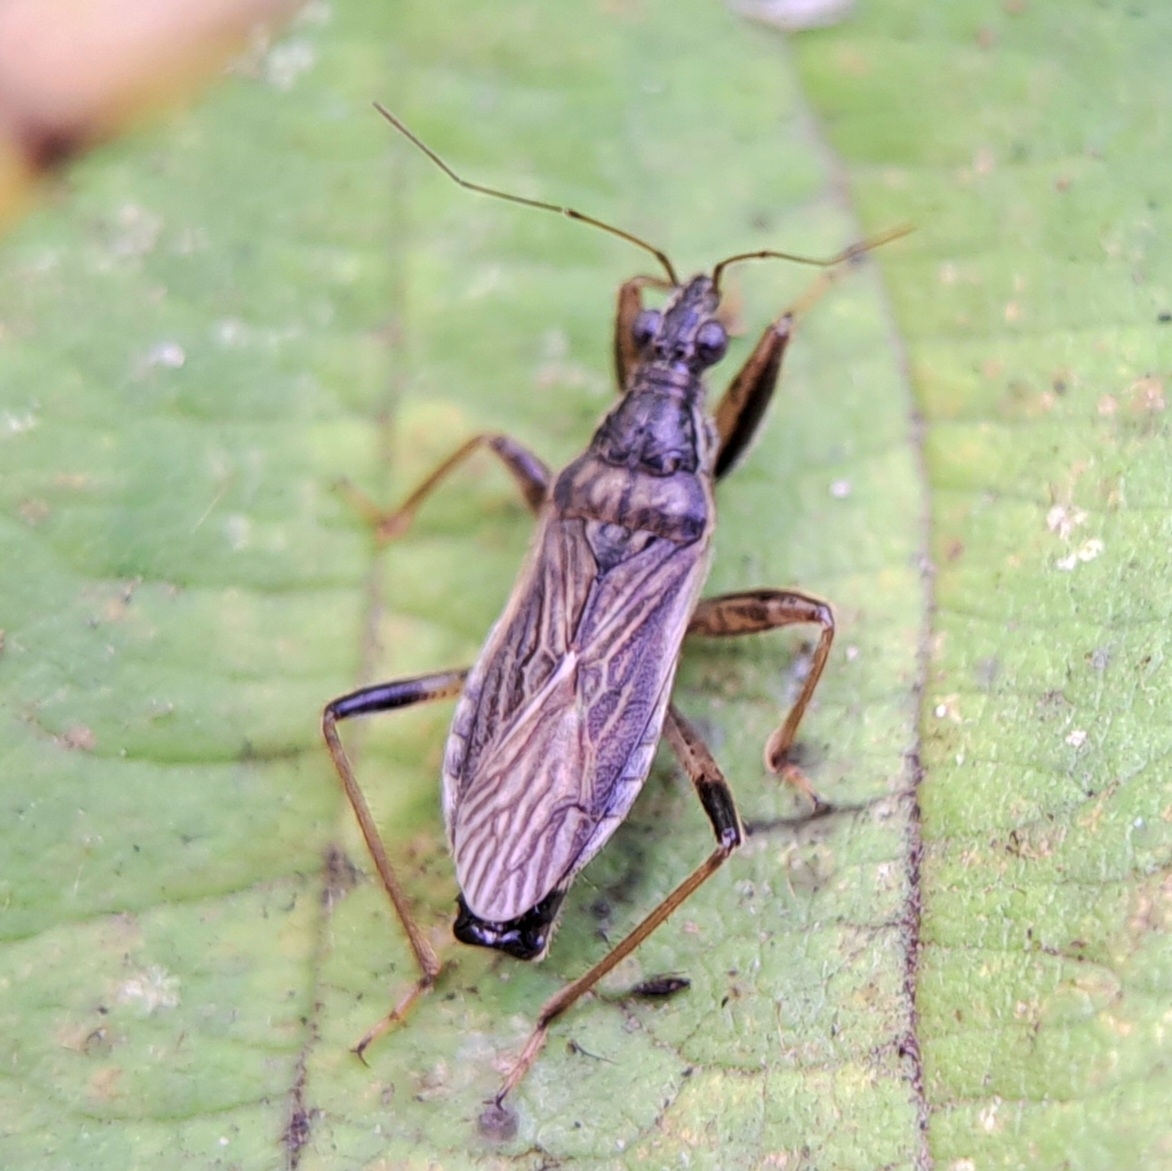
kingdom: Animalia
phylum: Arthropoda
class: Insecta
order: Hemiptera
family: Nabidae
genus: Himacerus
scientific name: Himacerus major
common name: Damsel bug
